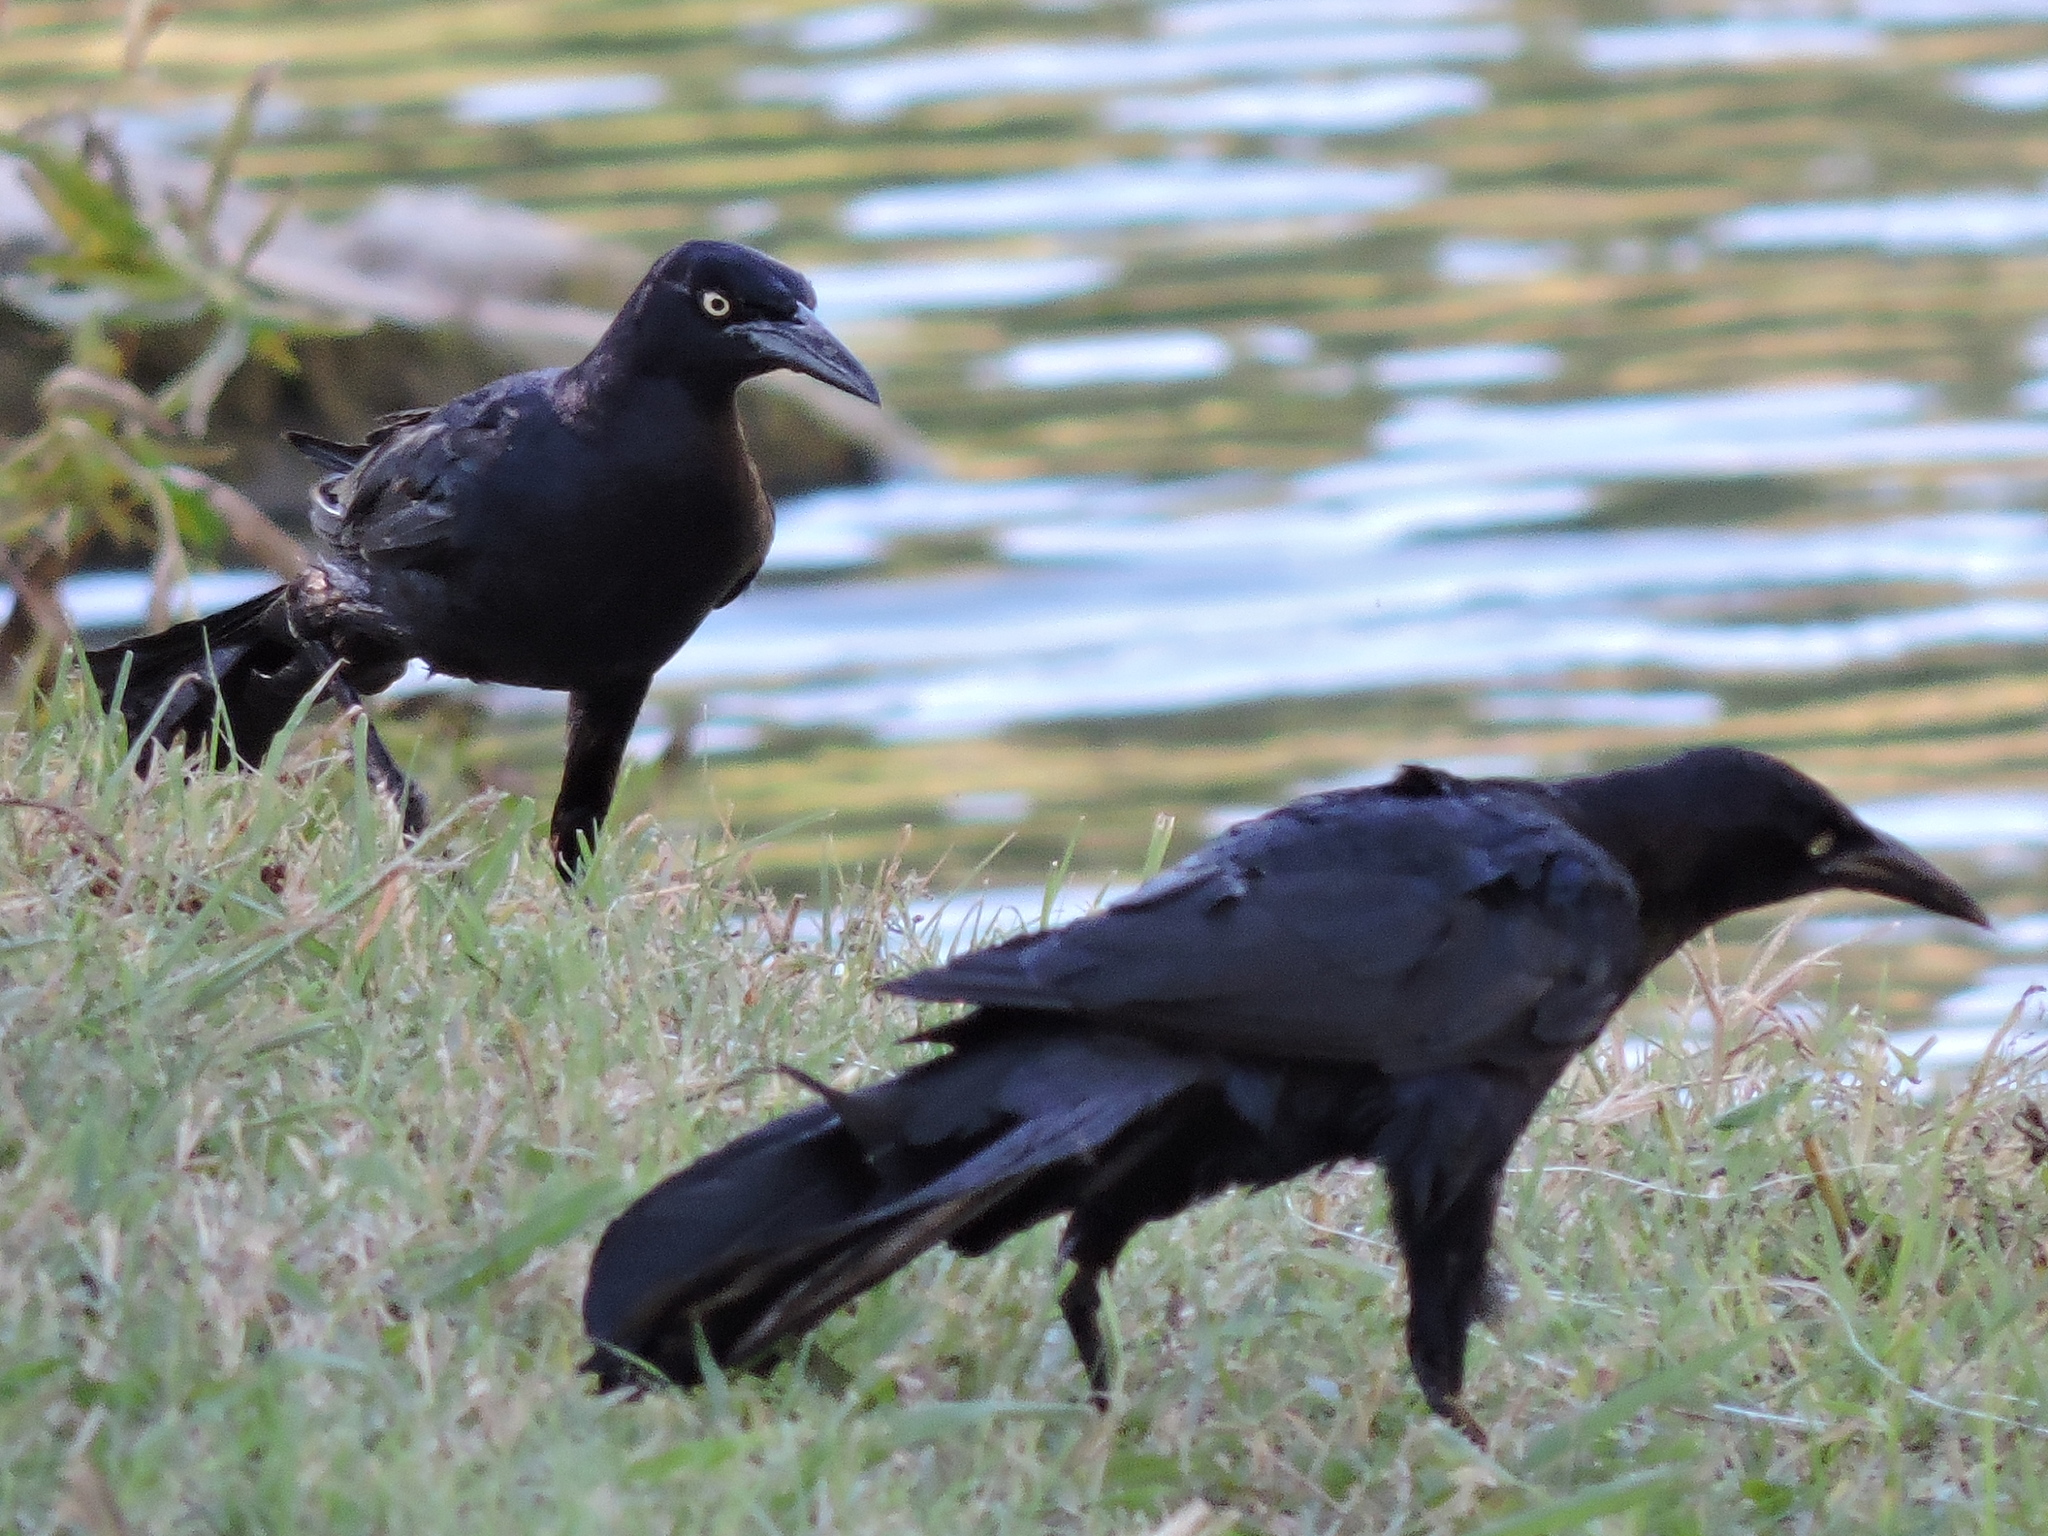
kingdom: Animalia
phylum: Chordata
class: Aves
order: Passeriformes
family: Icteridae
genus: Quiscalus
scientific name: Quiscalus mexicanus
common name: Great-tailed grackle
